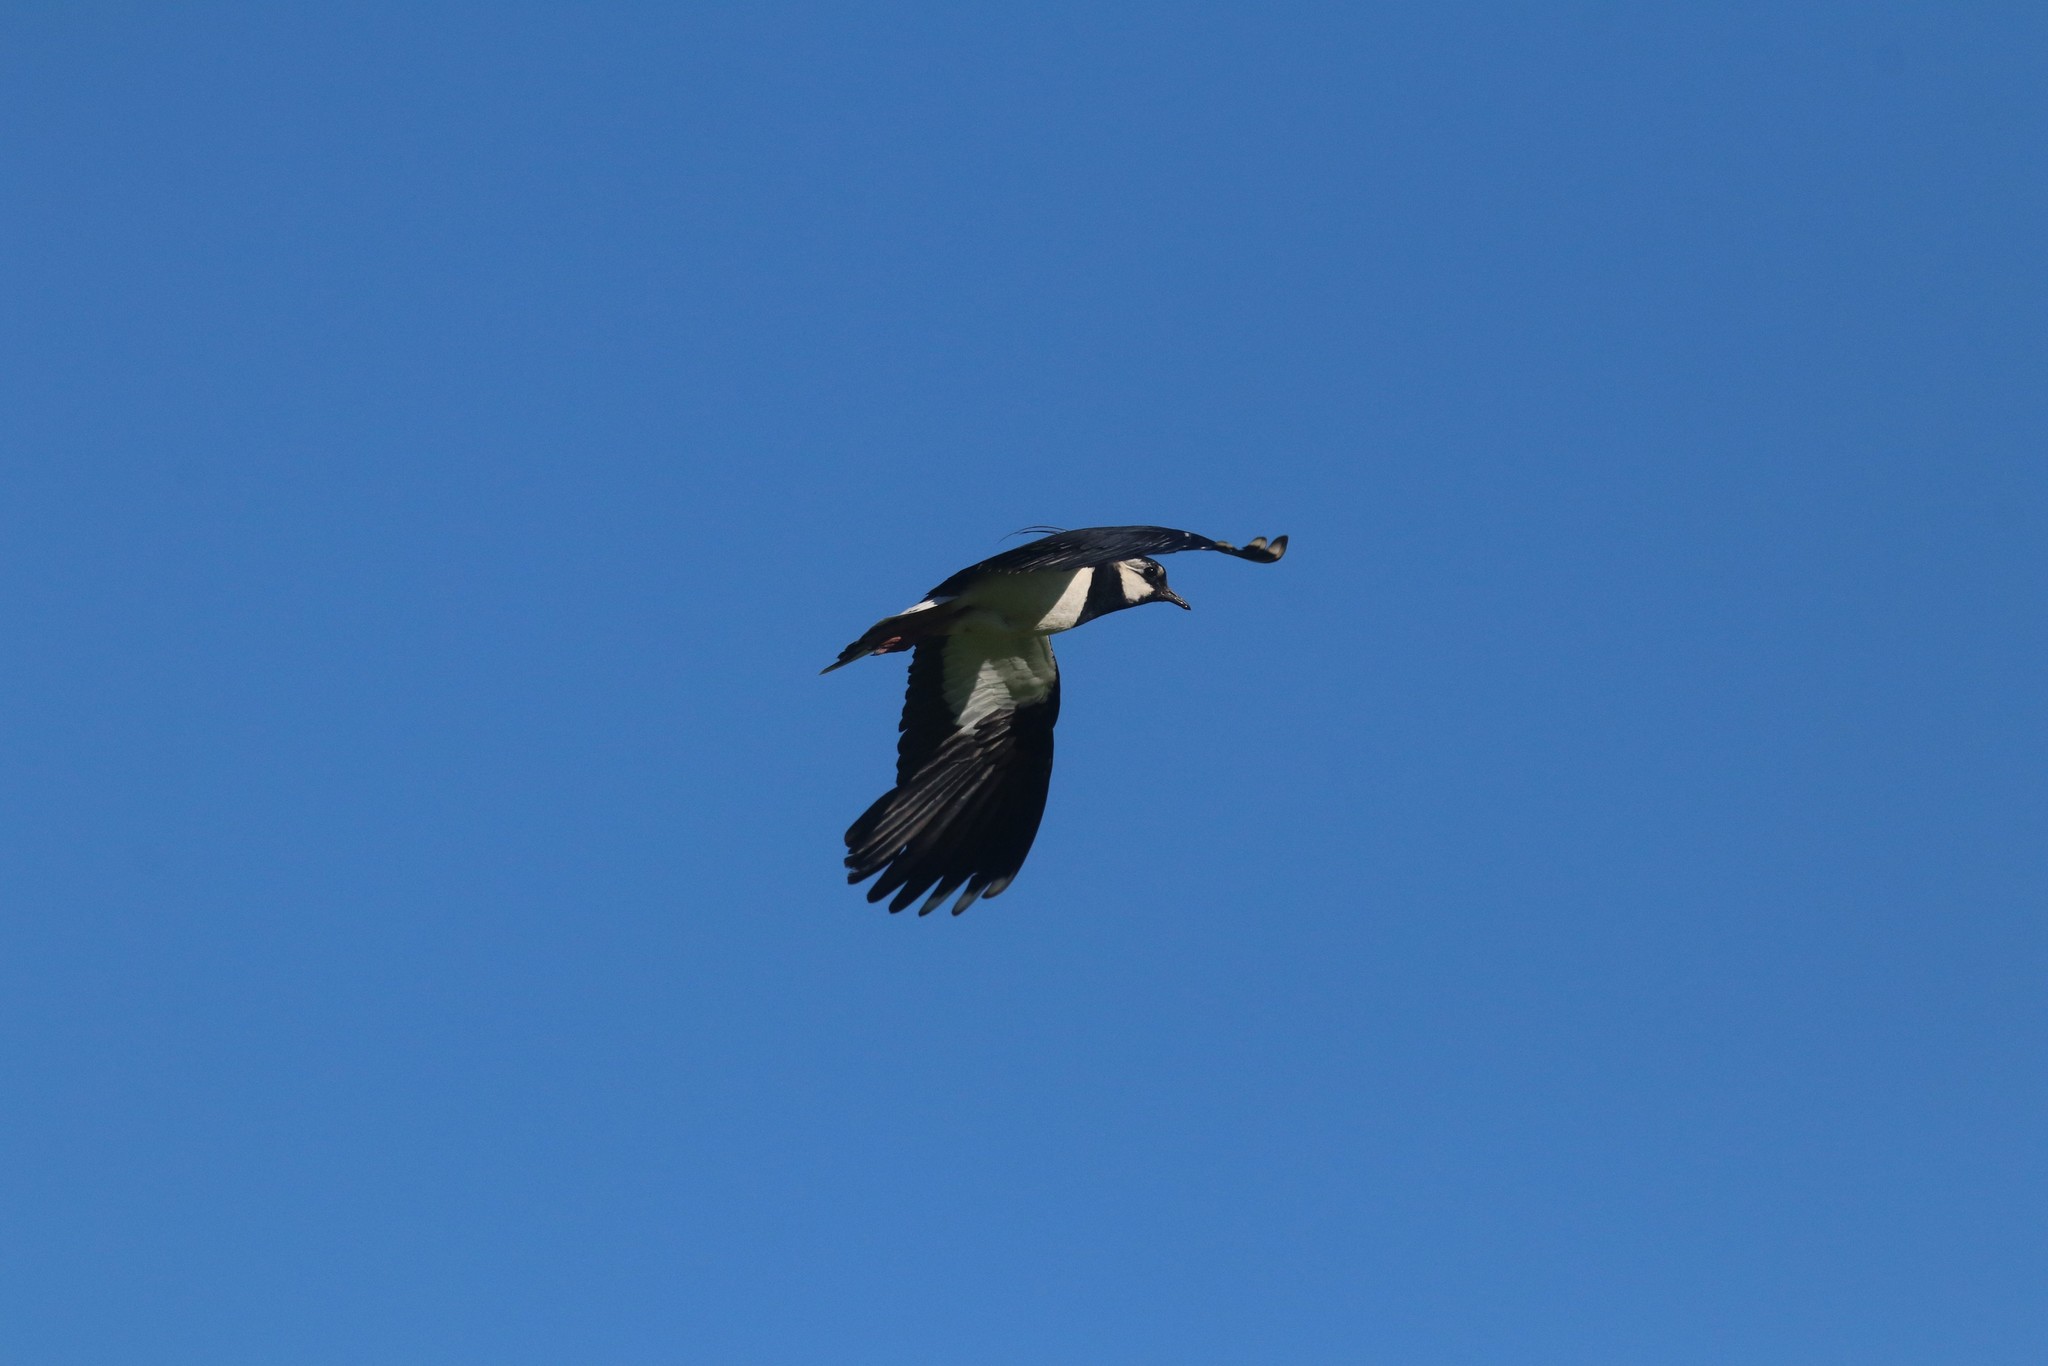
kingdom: Animalia
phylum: Chordata
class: Aves
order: Charadriiformes
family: Charadriidae
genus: Vanellus
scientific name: Vanellus vanellus
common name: Northern lapwing
